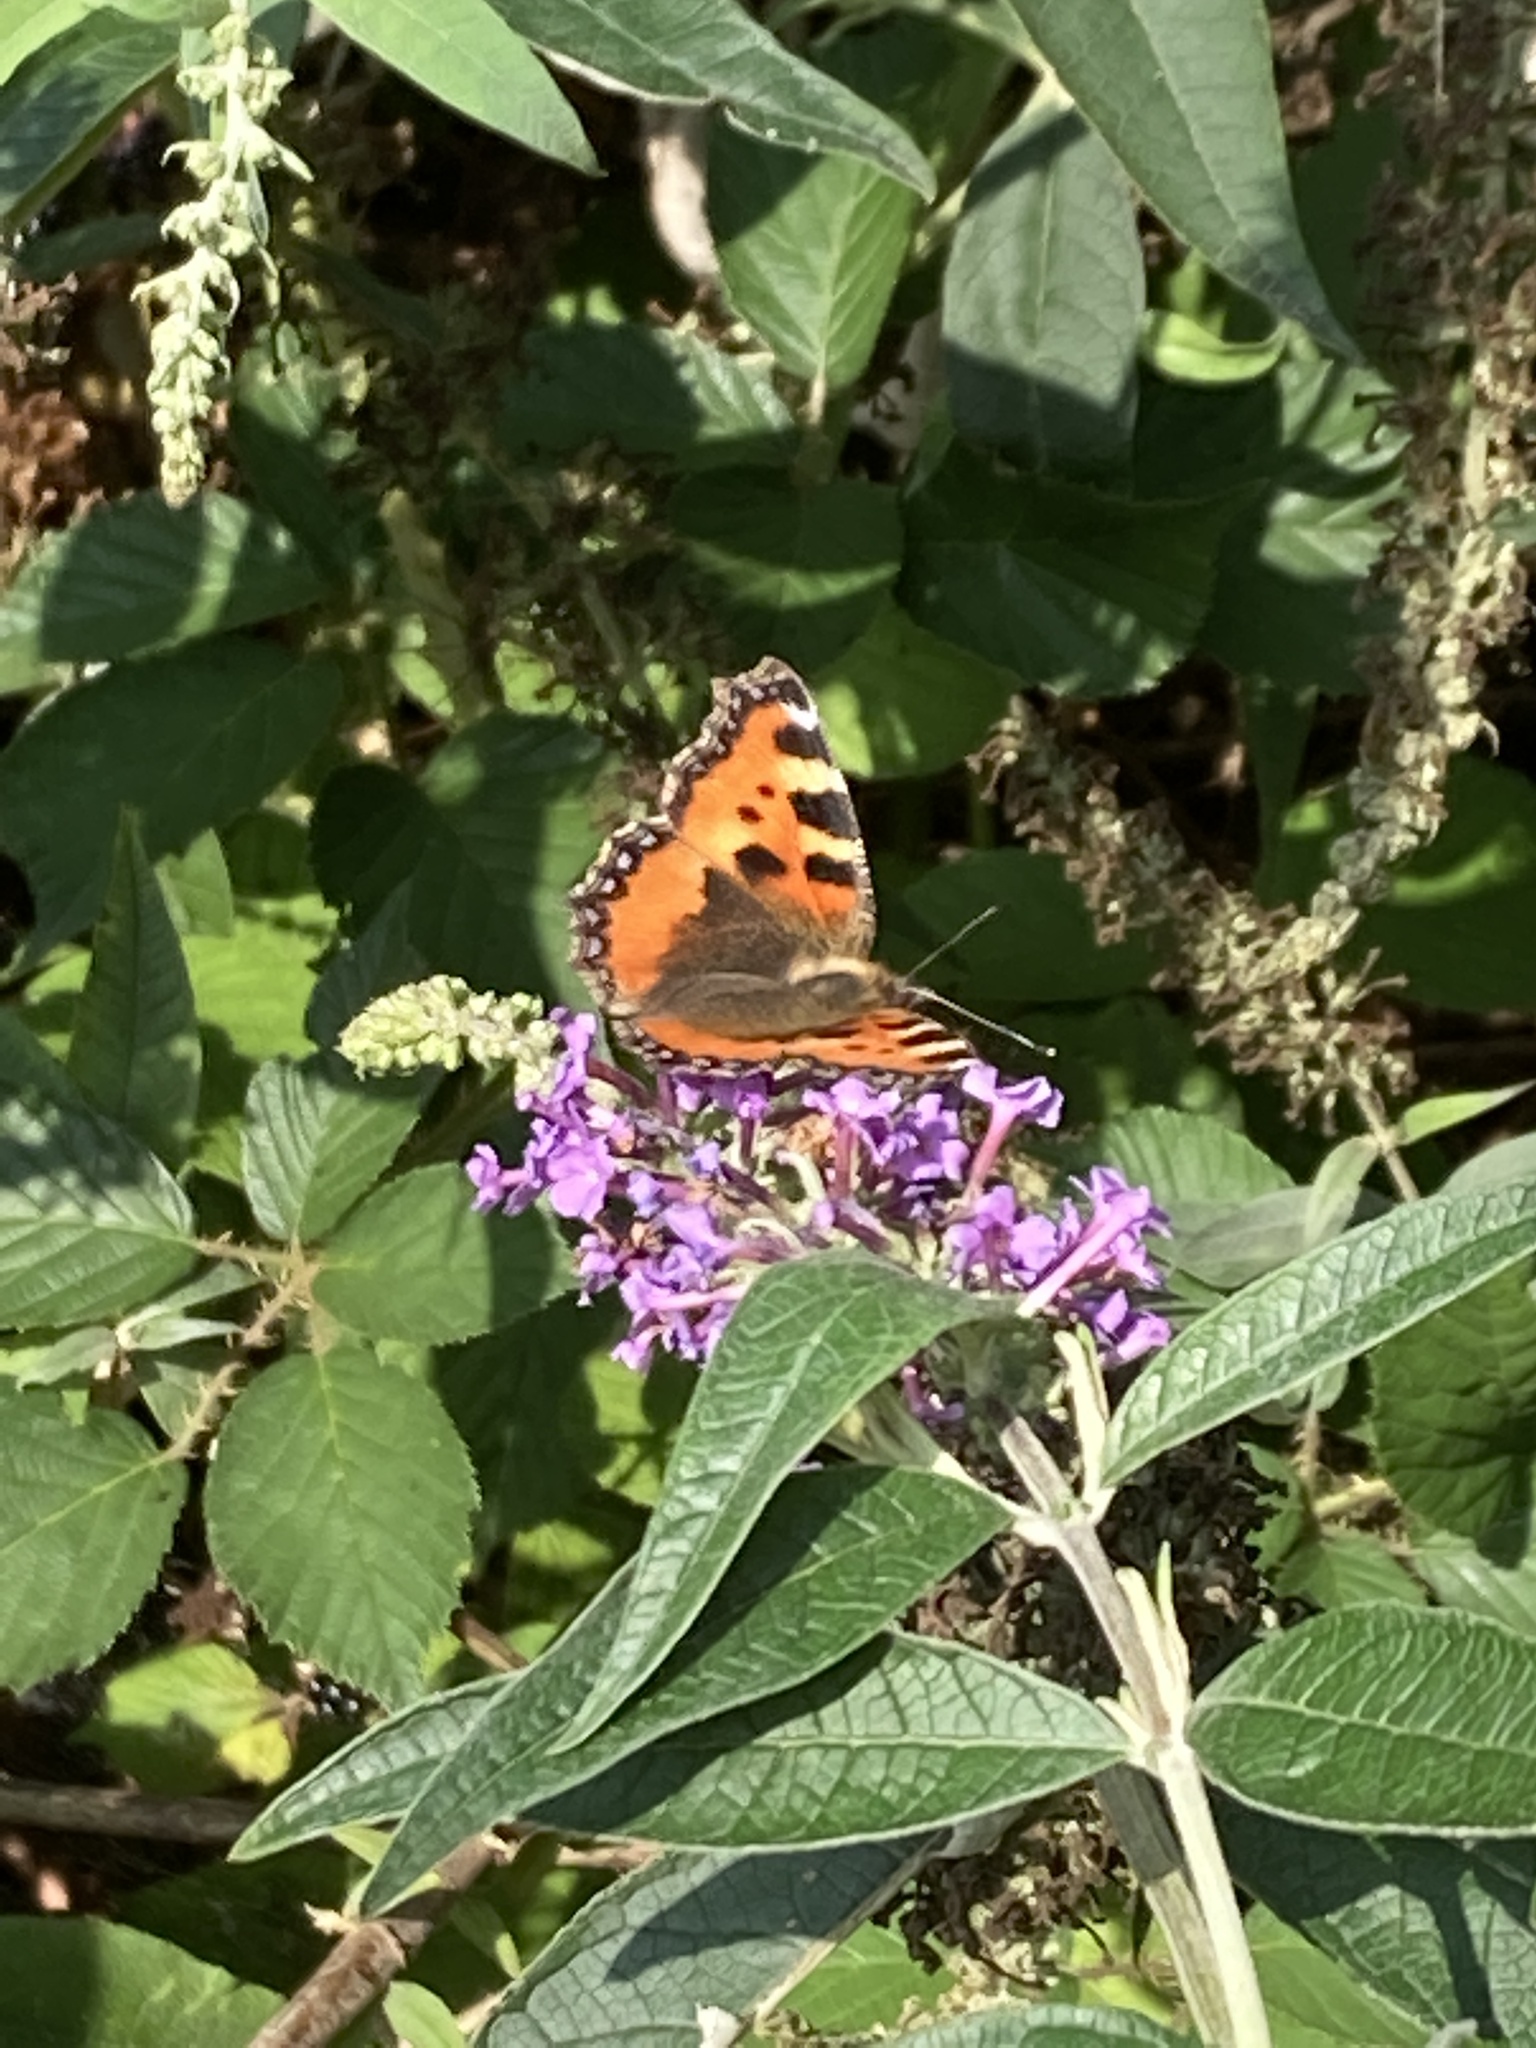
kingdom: Animalia
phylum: Arthropoda
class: Insecta
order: Lepidoptera
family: Nymphalidae
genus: Aglais
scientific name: Aglais urticae
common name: Small tortoiseshell
